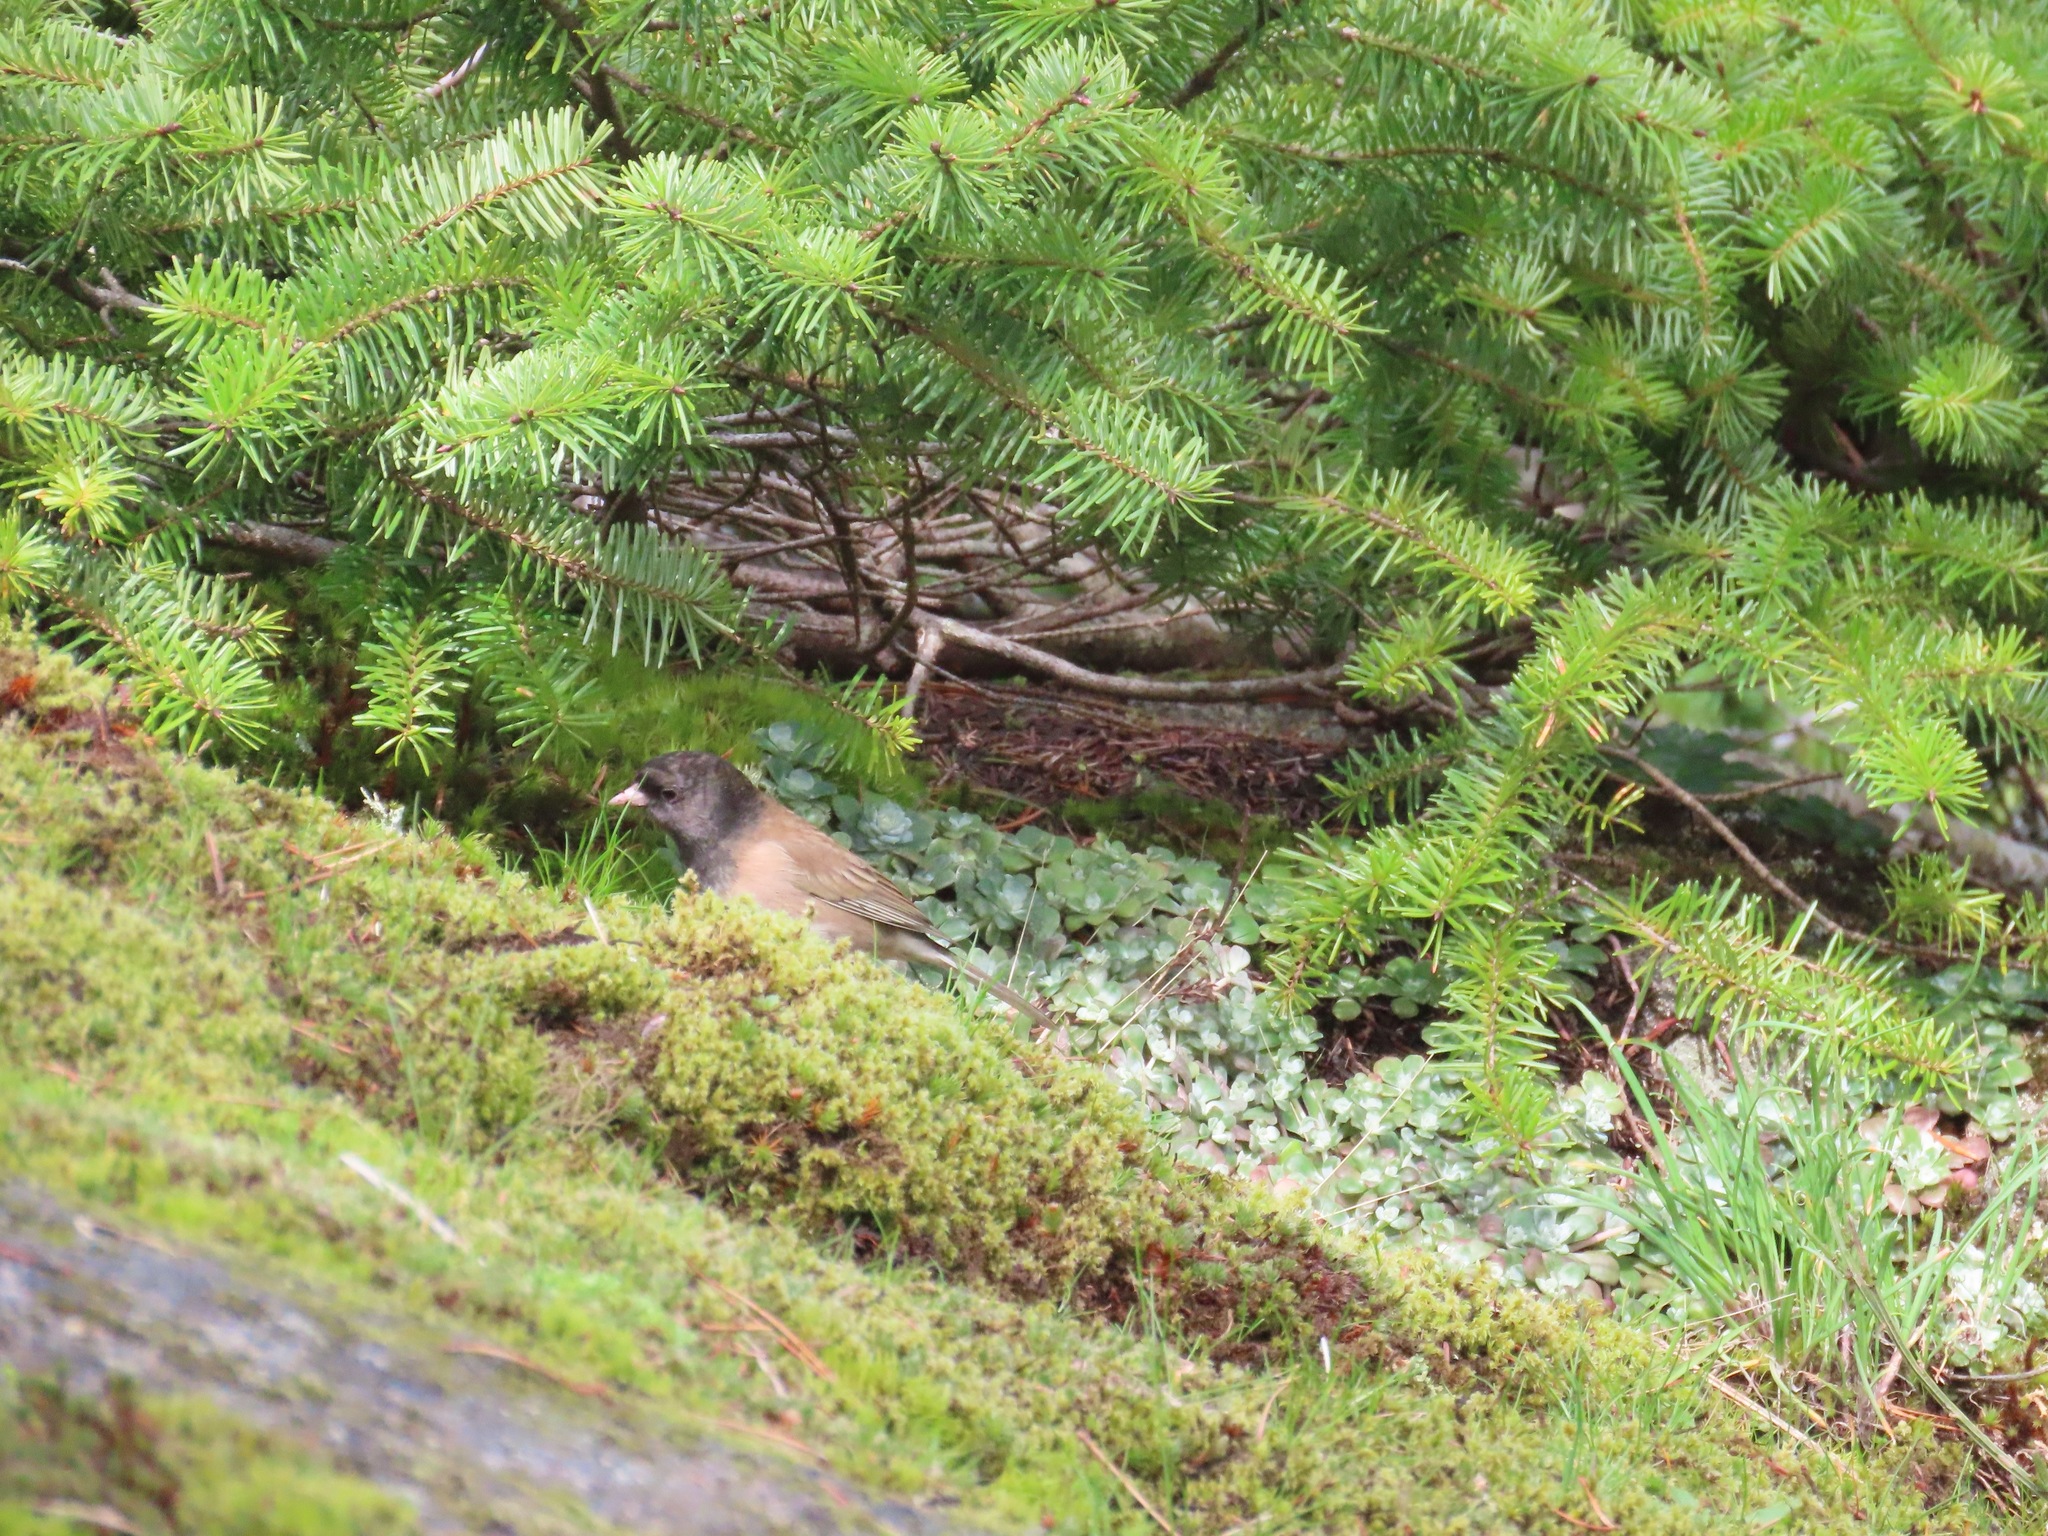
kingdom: Animalia
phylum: Chordata
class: Aves
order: Passeriformes
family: Passerellidae
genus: Junco
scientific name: Junco hyemalis
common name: Dark-eyed junco
